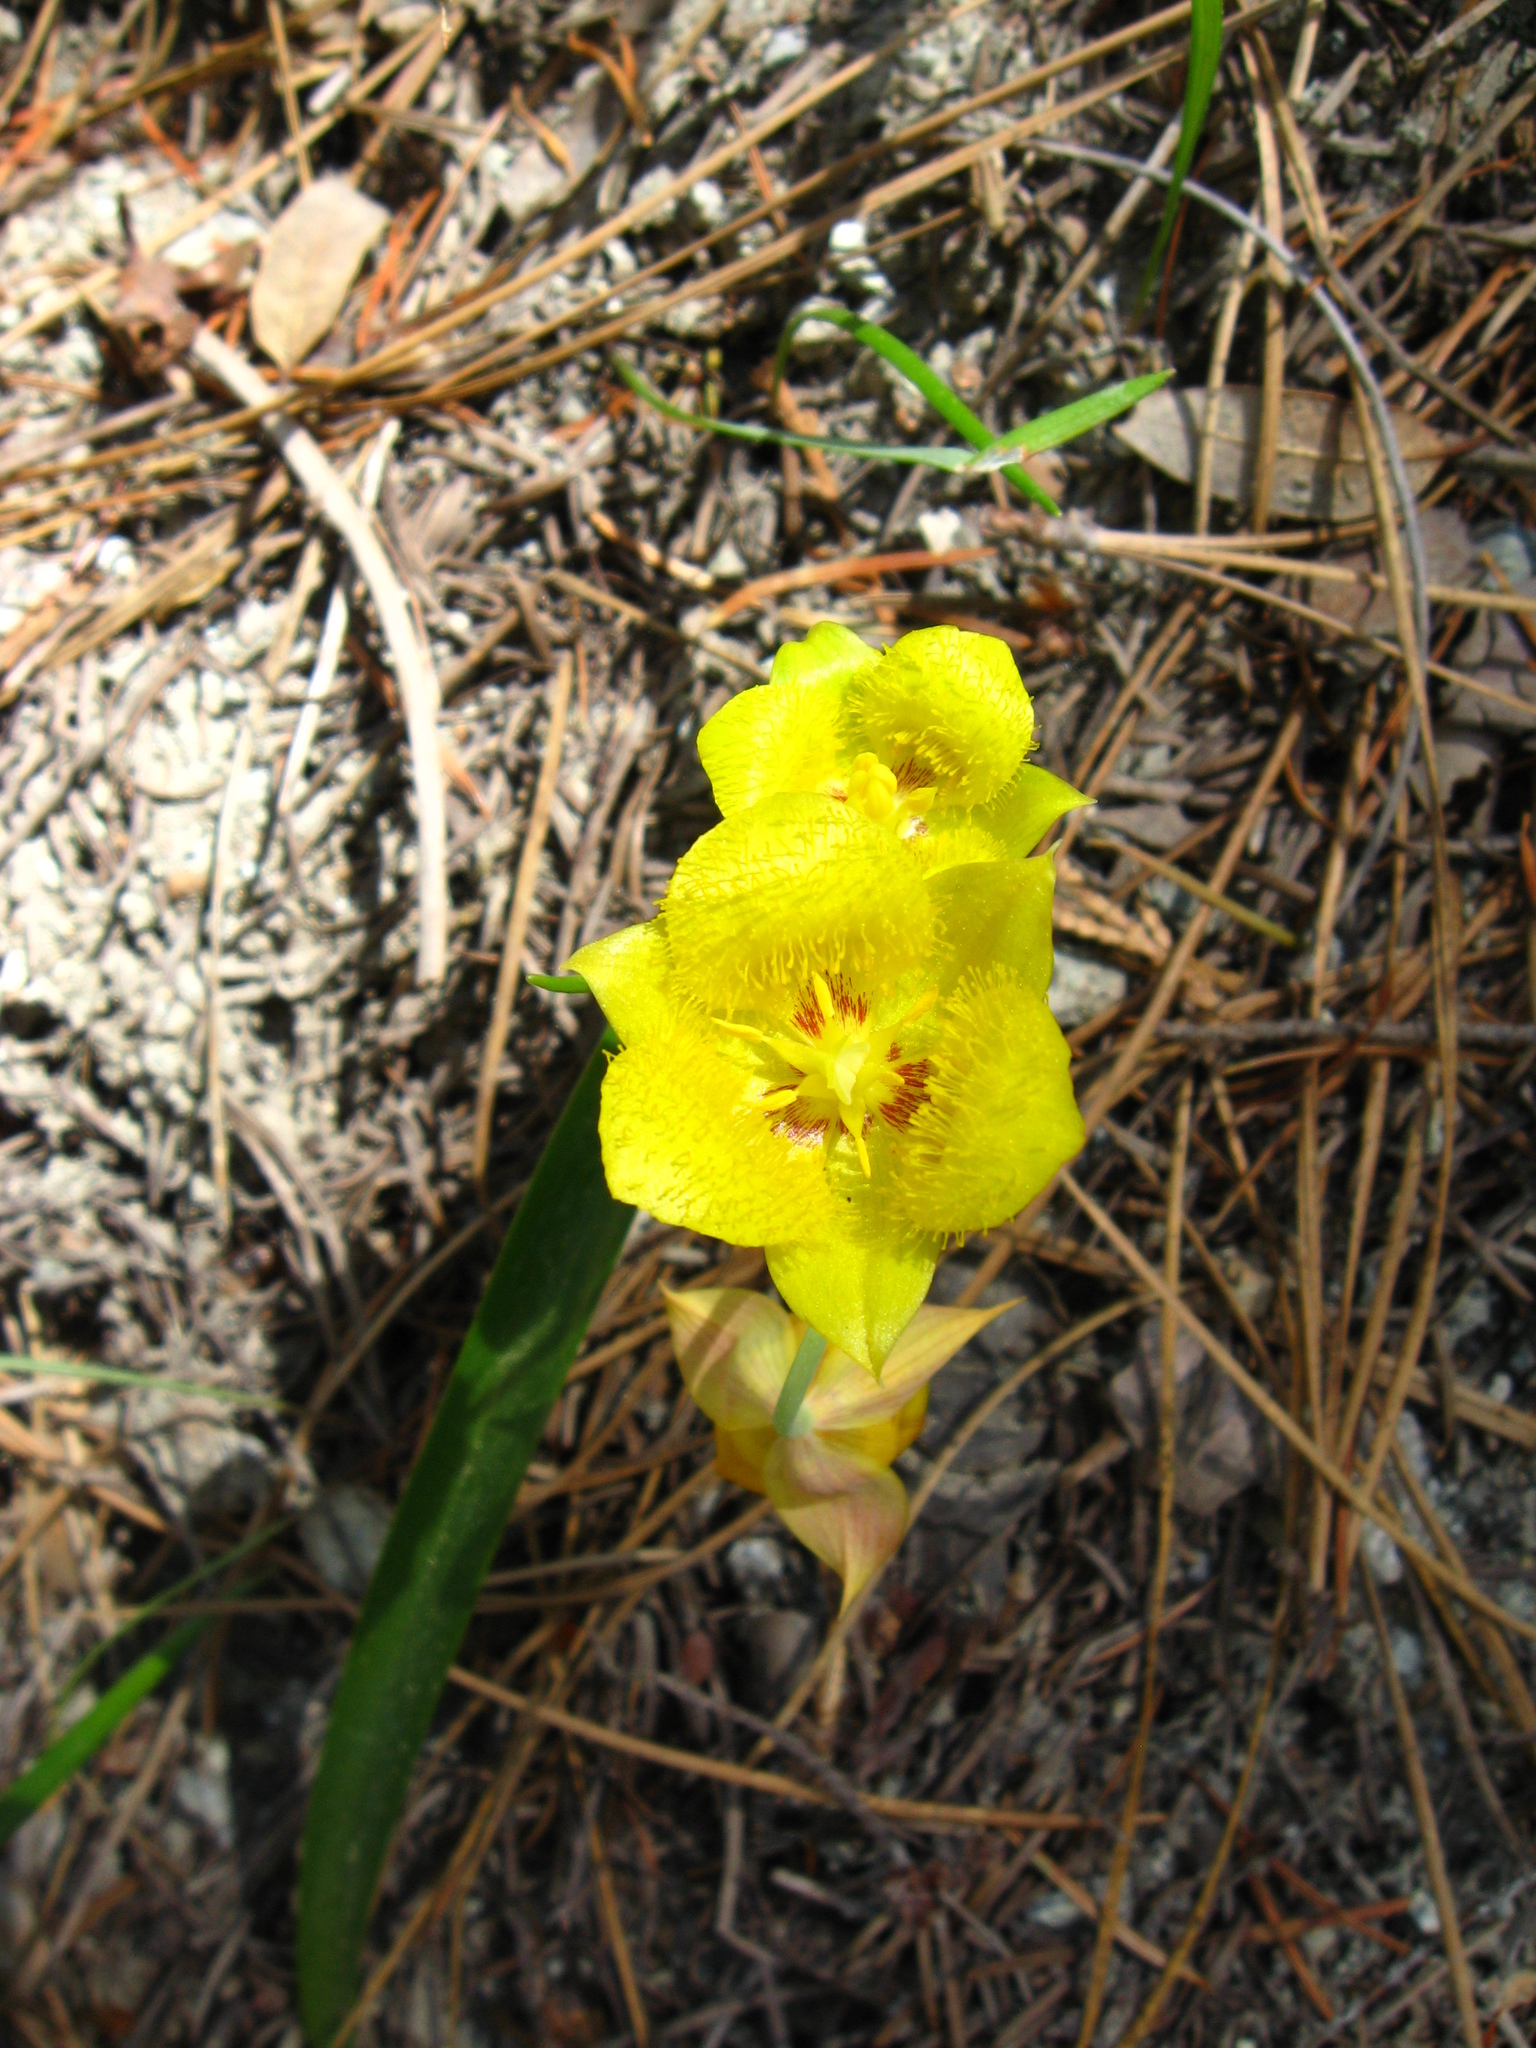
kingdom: Plantae
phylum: Tracheophyta
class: Liliopsida
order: Liliales
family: Liliaceae
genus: Calochortus
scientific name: Calochortus monophyllus
